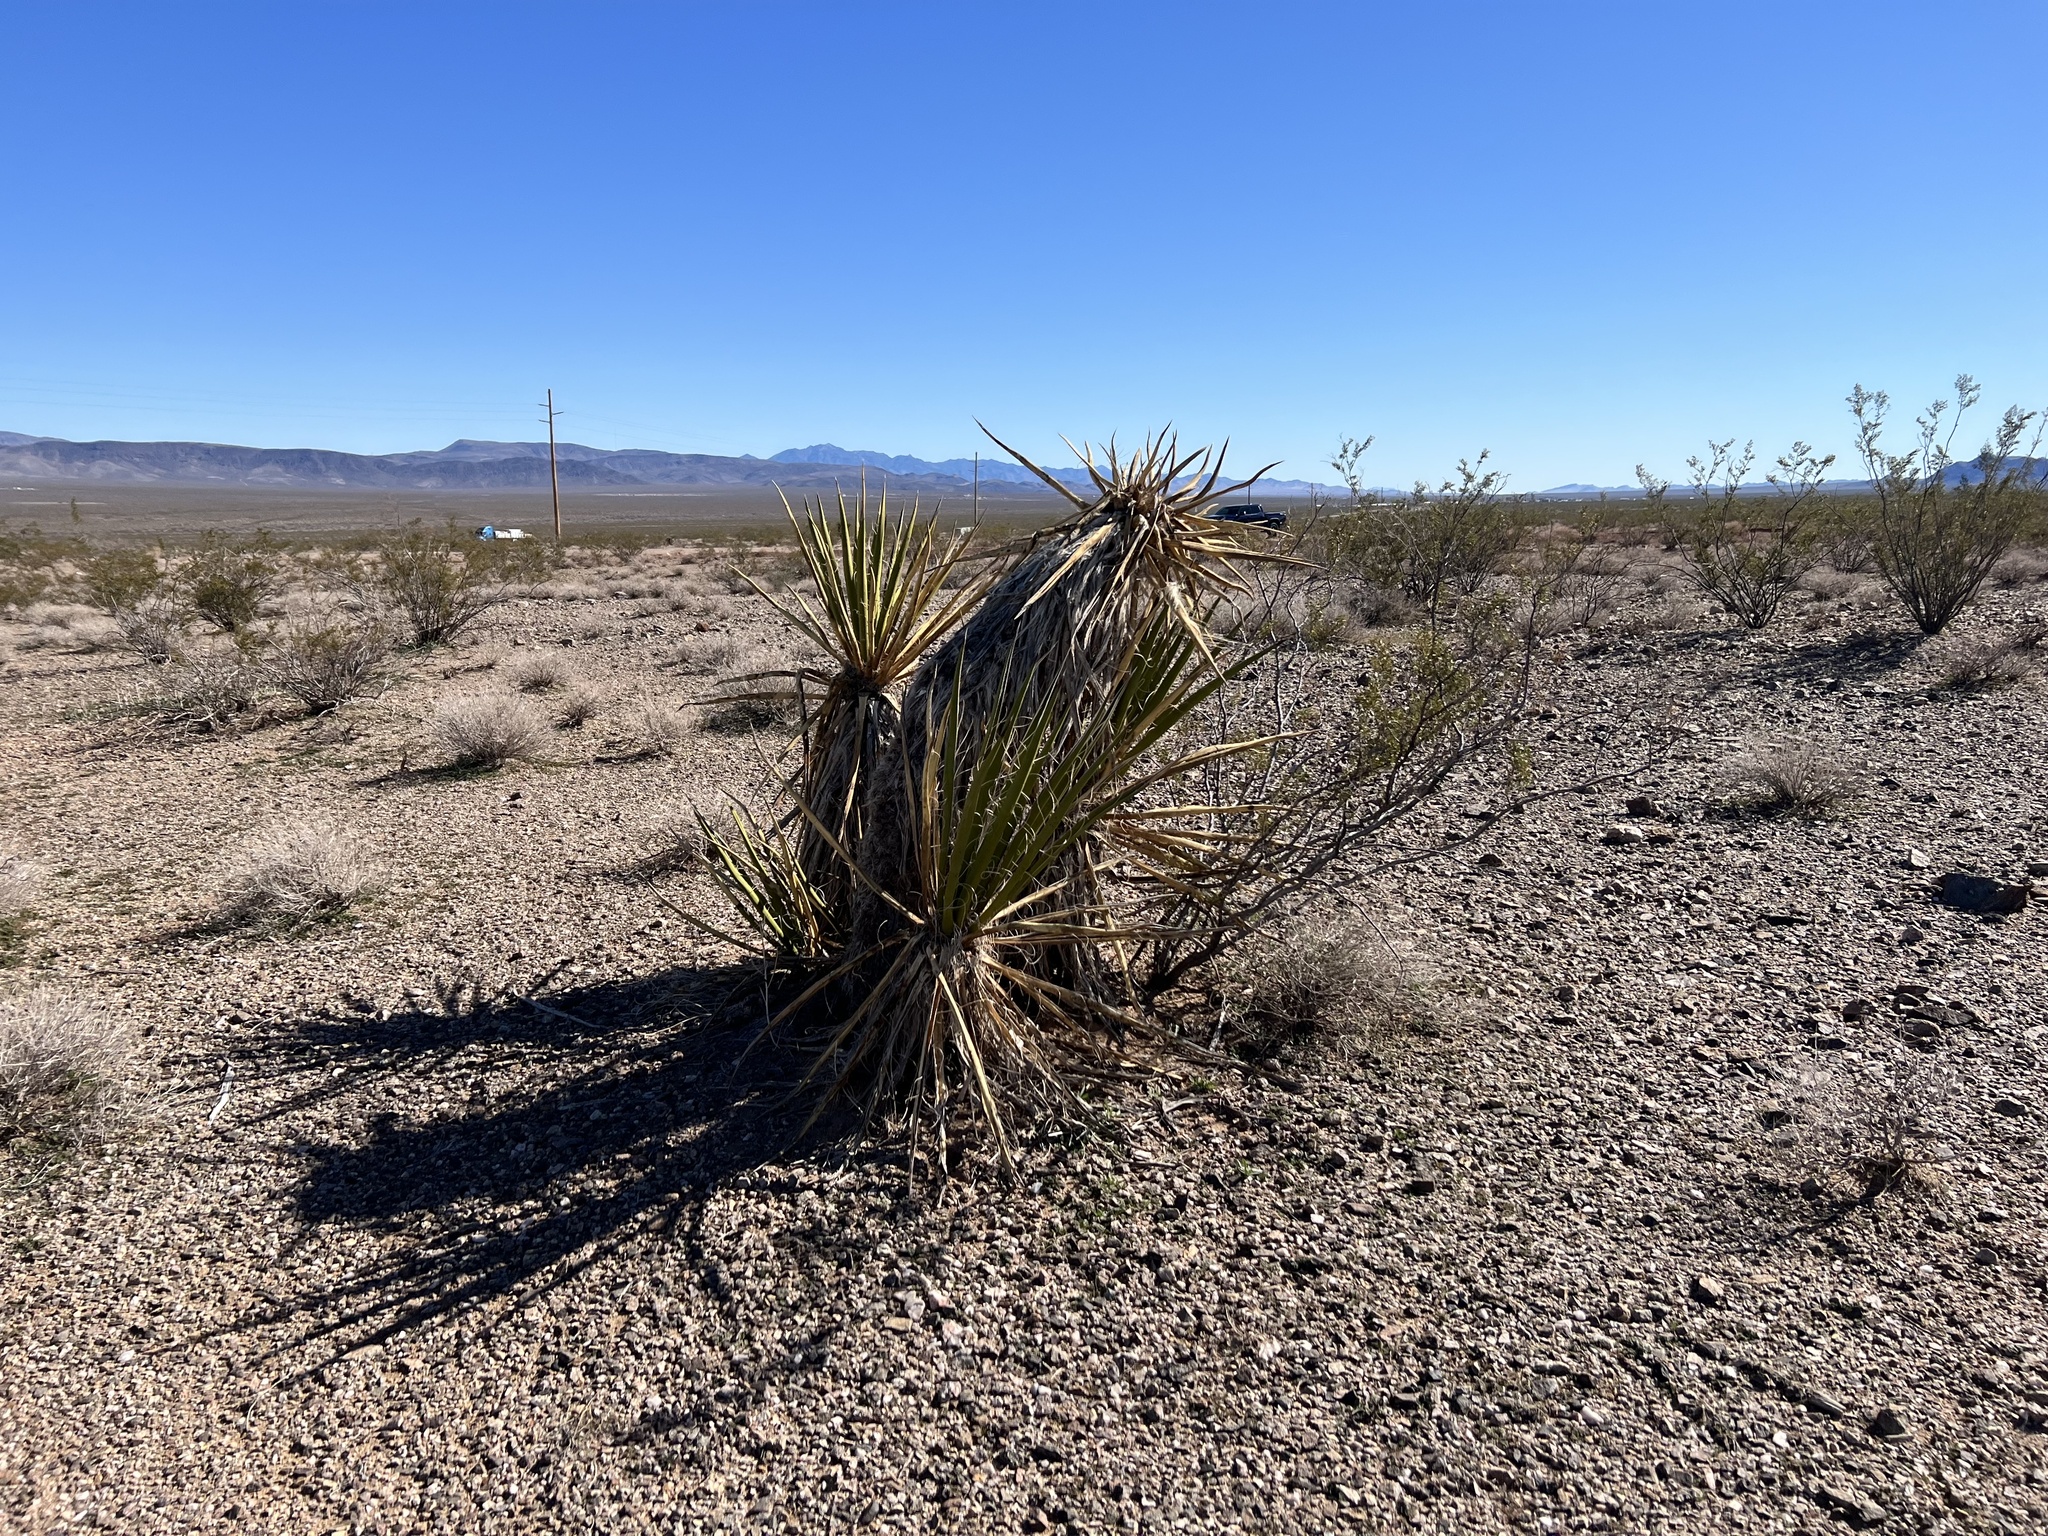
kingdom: Plantae
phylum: Tracheophyta
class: Liliopsida
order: Asparagales
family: Asparagaceae
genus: Yucca
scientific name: Yucca schidigera
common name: Mojave yucca
